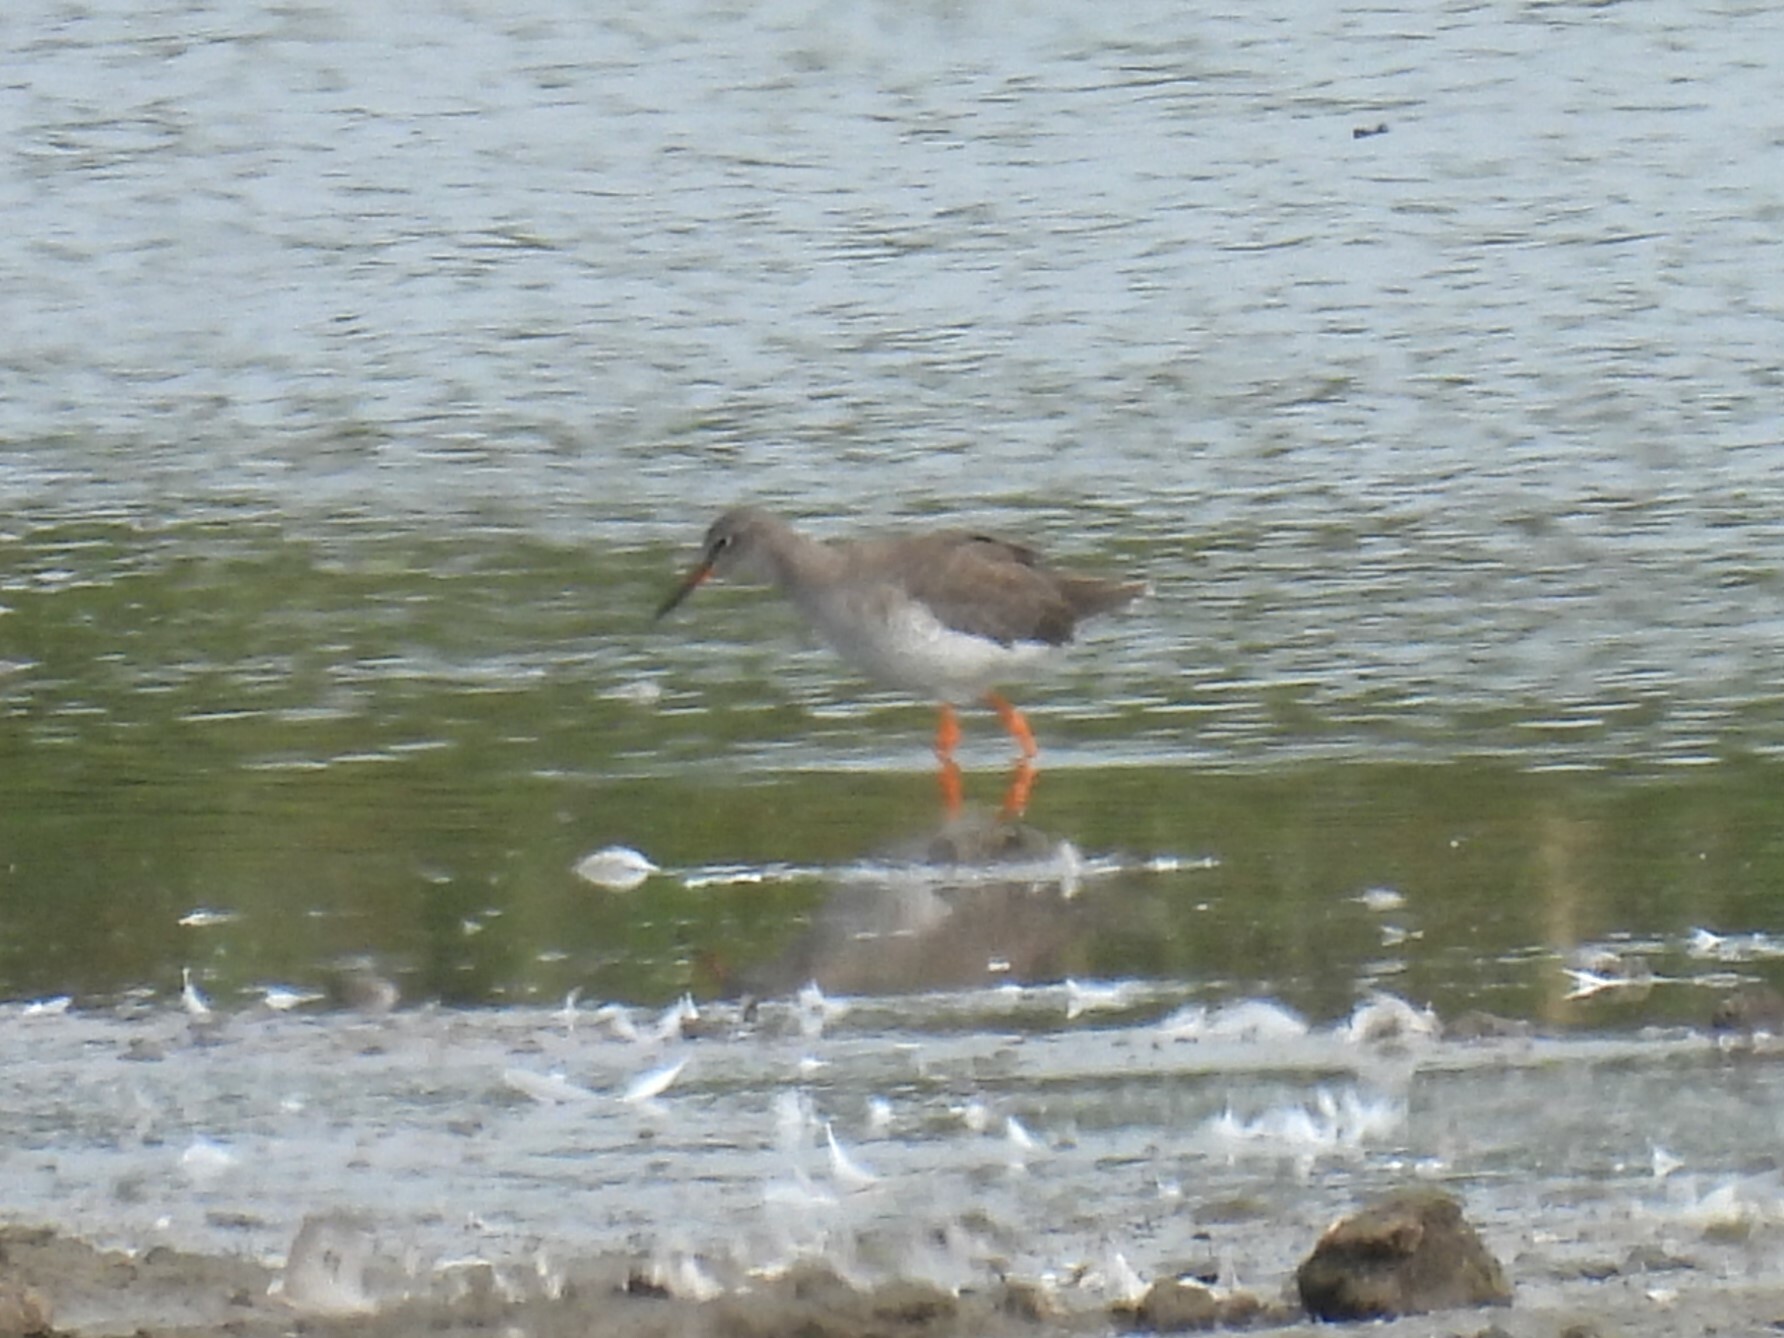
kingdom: Animalia
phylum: Chordata
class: Aves
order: Charadriiformes
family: Scolopacidae
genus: Tringa
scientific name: Tringa totanus
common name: Common redshank
